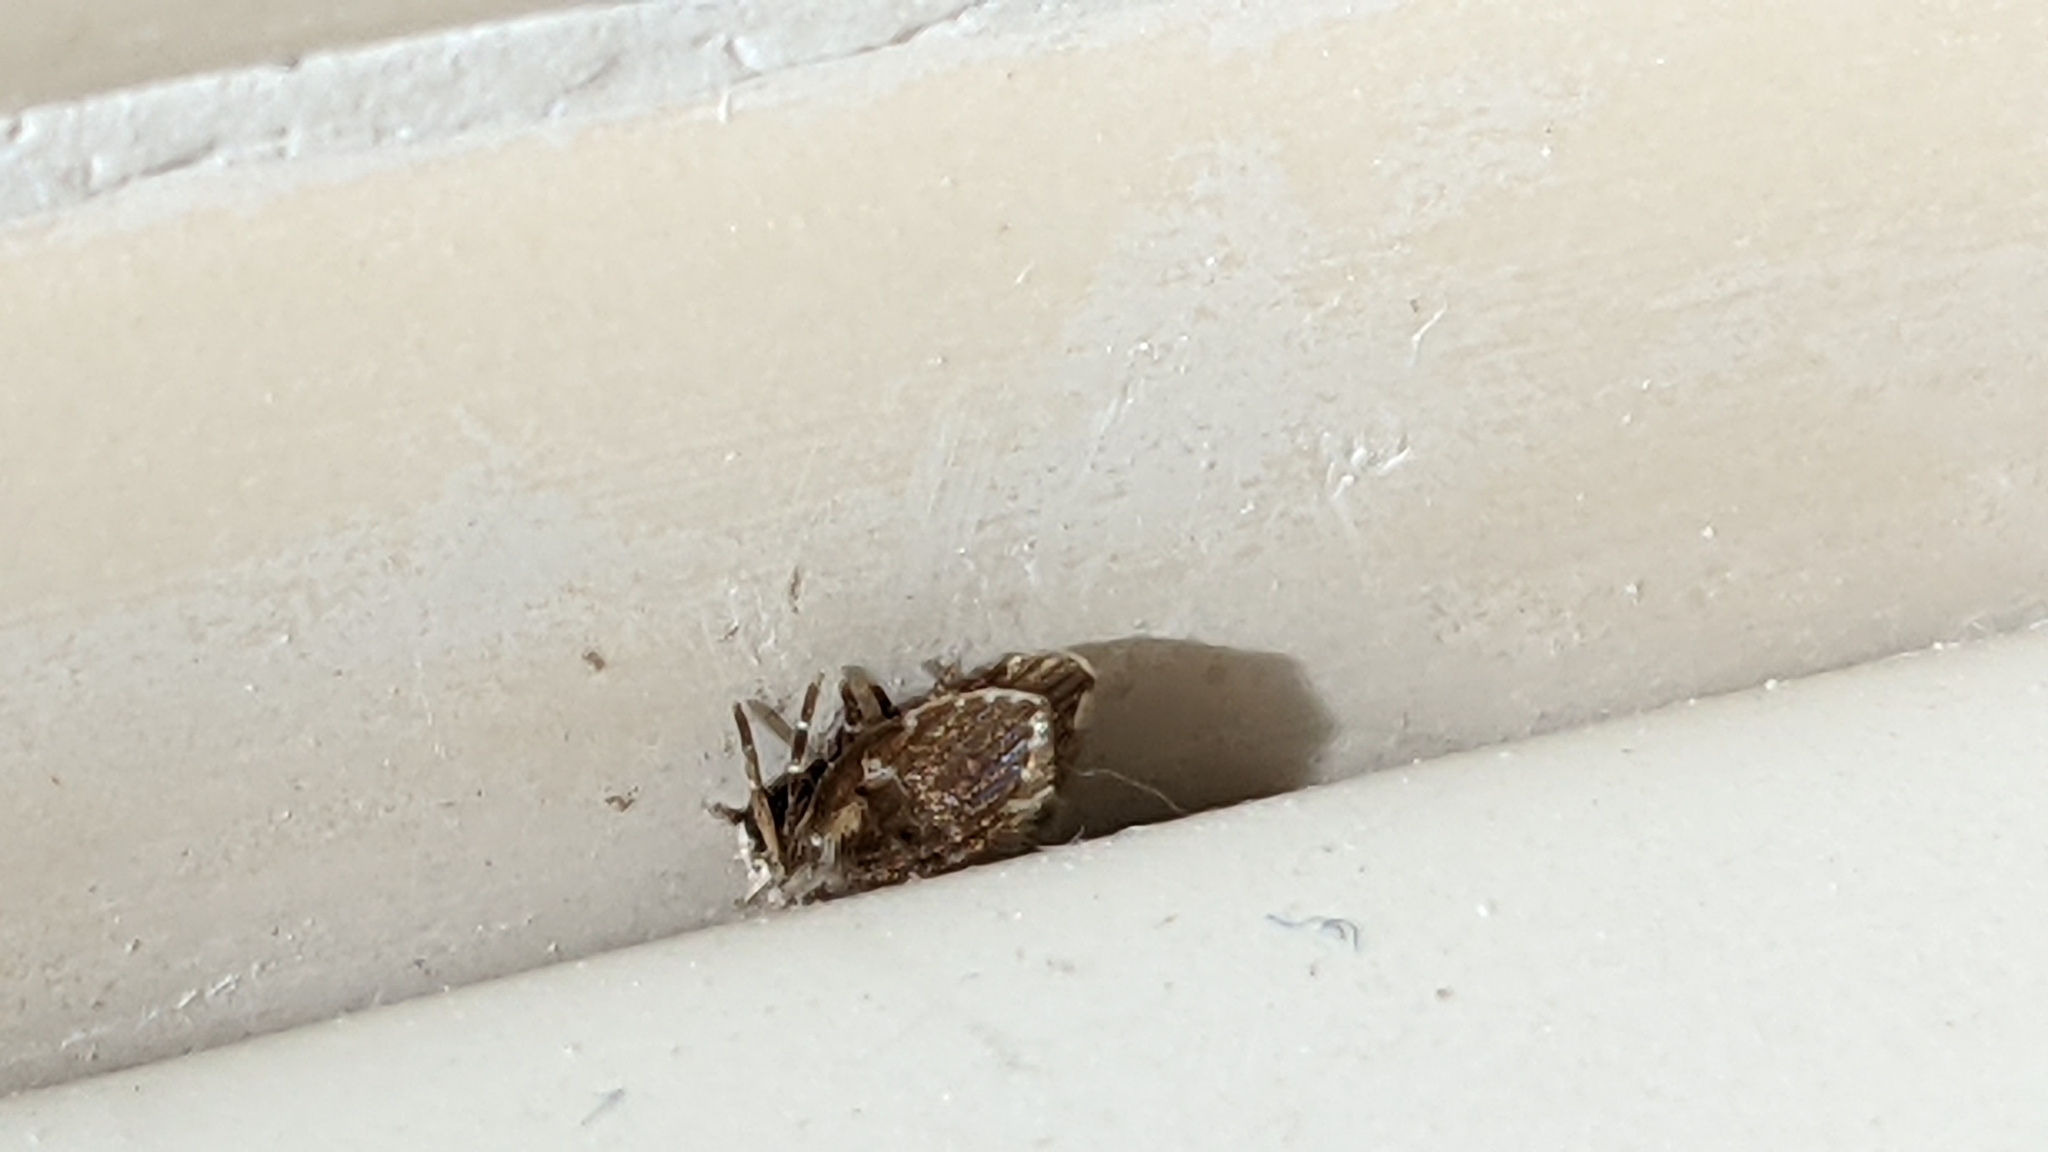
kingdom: Animalia
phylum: Arthropoda
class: Insecta
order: Diptera
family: Psychodidae
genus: Clogmia
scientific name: Clogmia albipunctatus
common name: White-spotted moth fly
